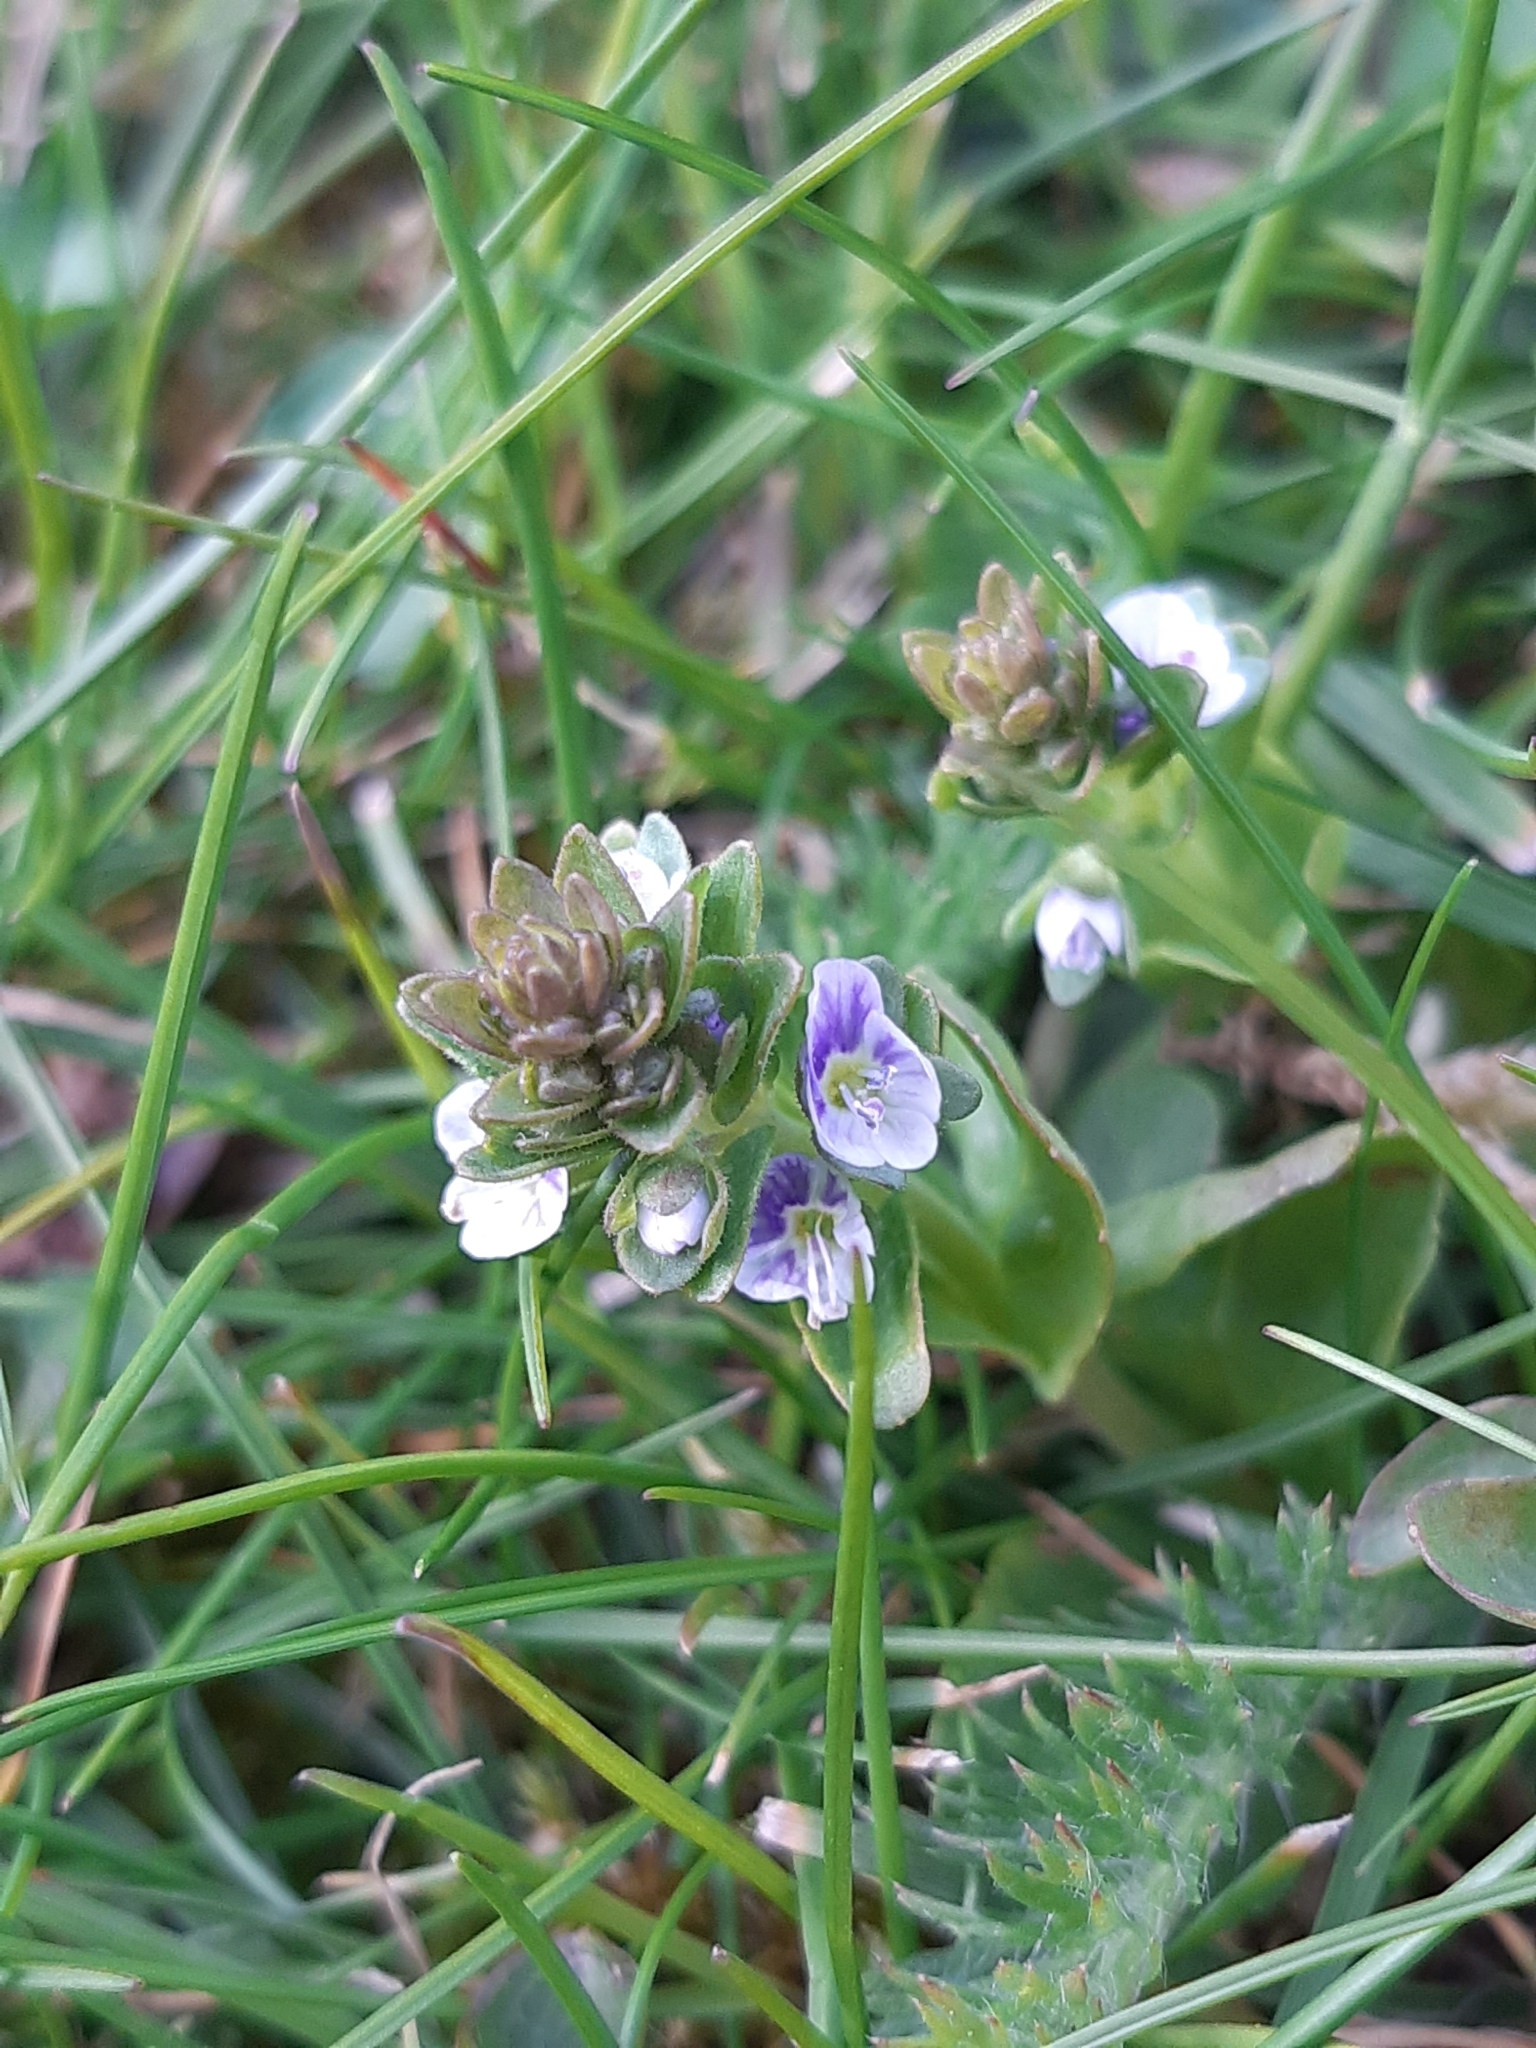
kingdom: Plantae
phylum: Tracheophyta
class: Magnoliopsida
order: Lamiales
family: Plantaginaceae
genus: Veronica
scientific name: Veronica serpyllifolia
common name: Thyme-leaved speedwell
